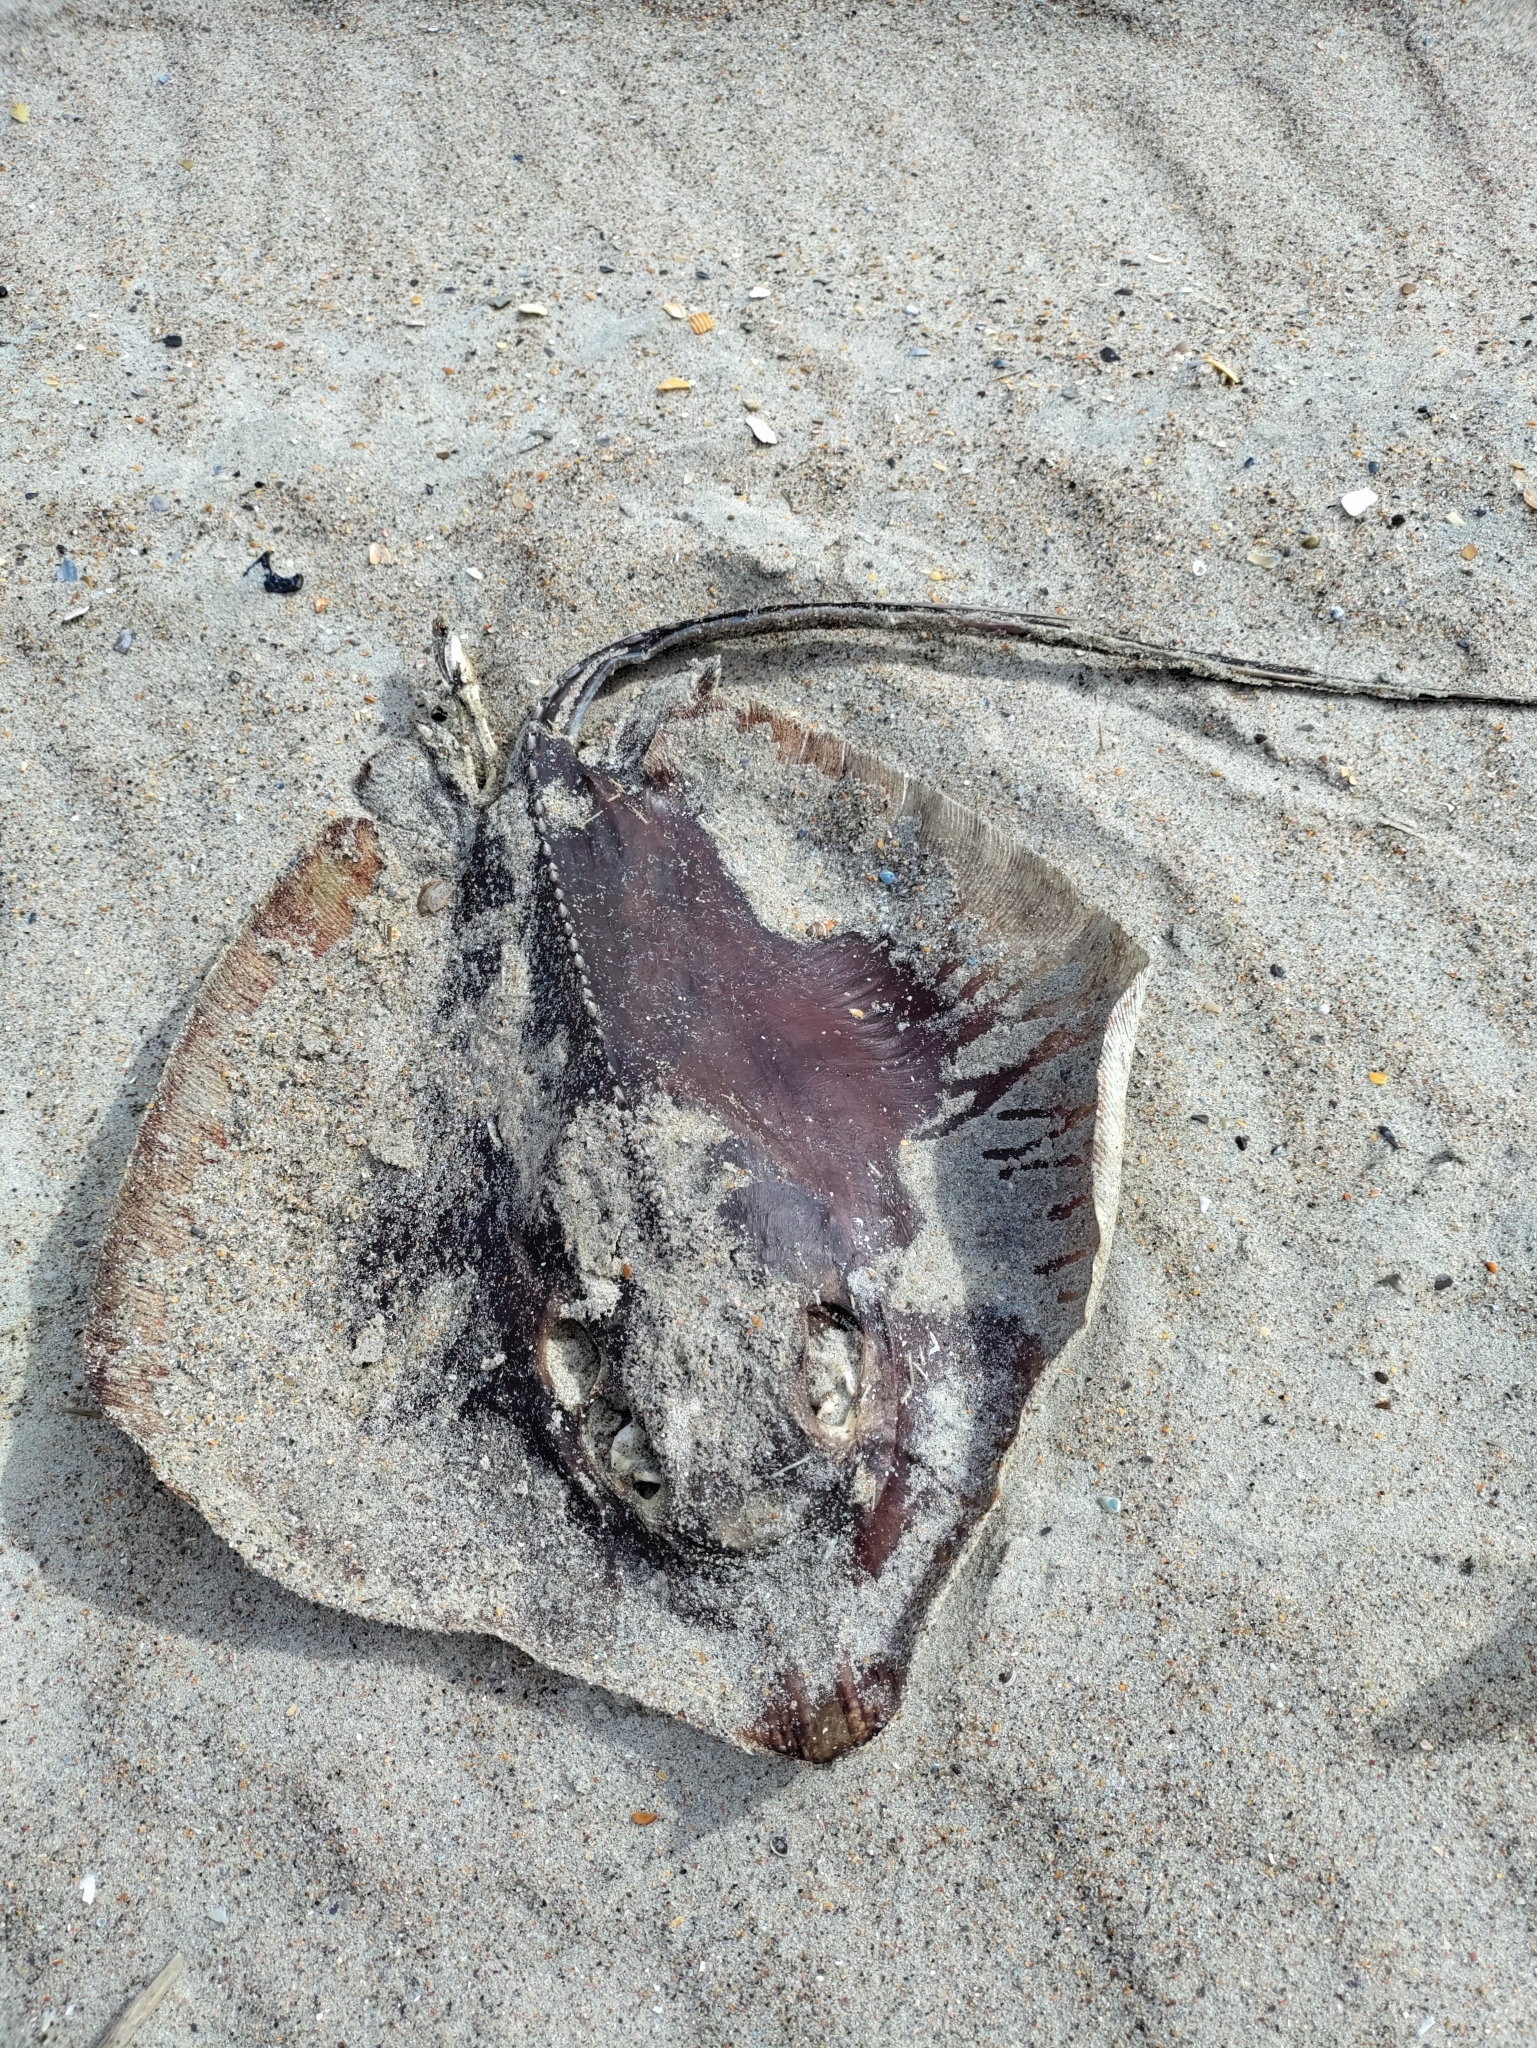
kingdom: Animalia
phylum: Chordata
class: Elasmobranchii
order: Myliobatiformes
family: Dasyatidae
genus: Hypanus
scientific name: Hypanus sabinus
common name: Atlantic stingray
